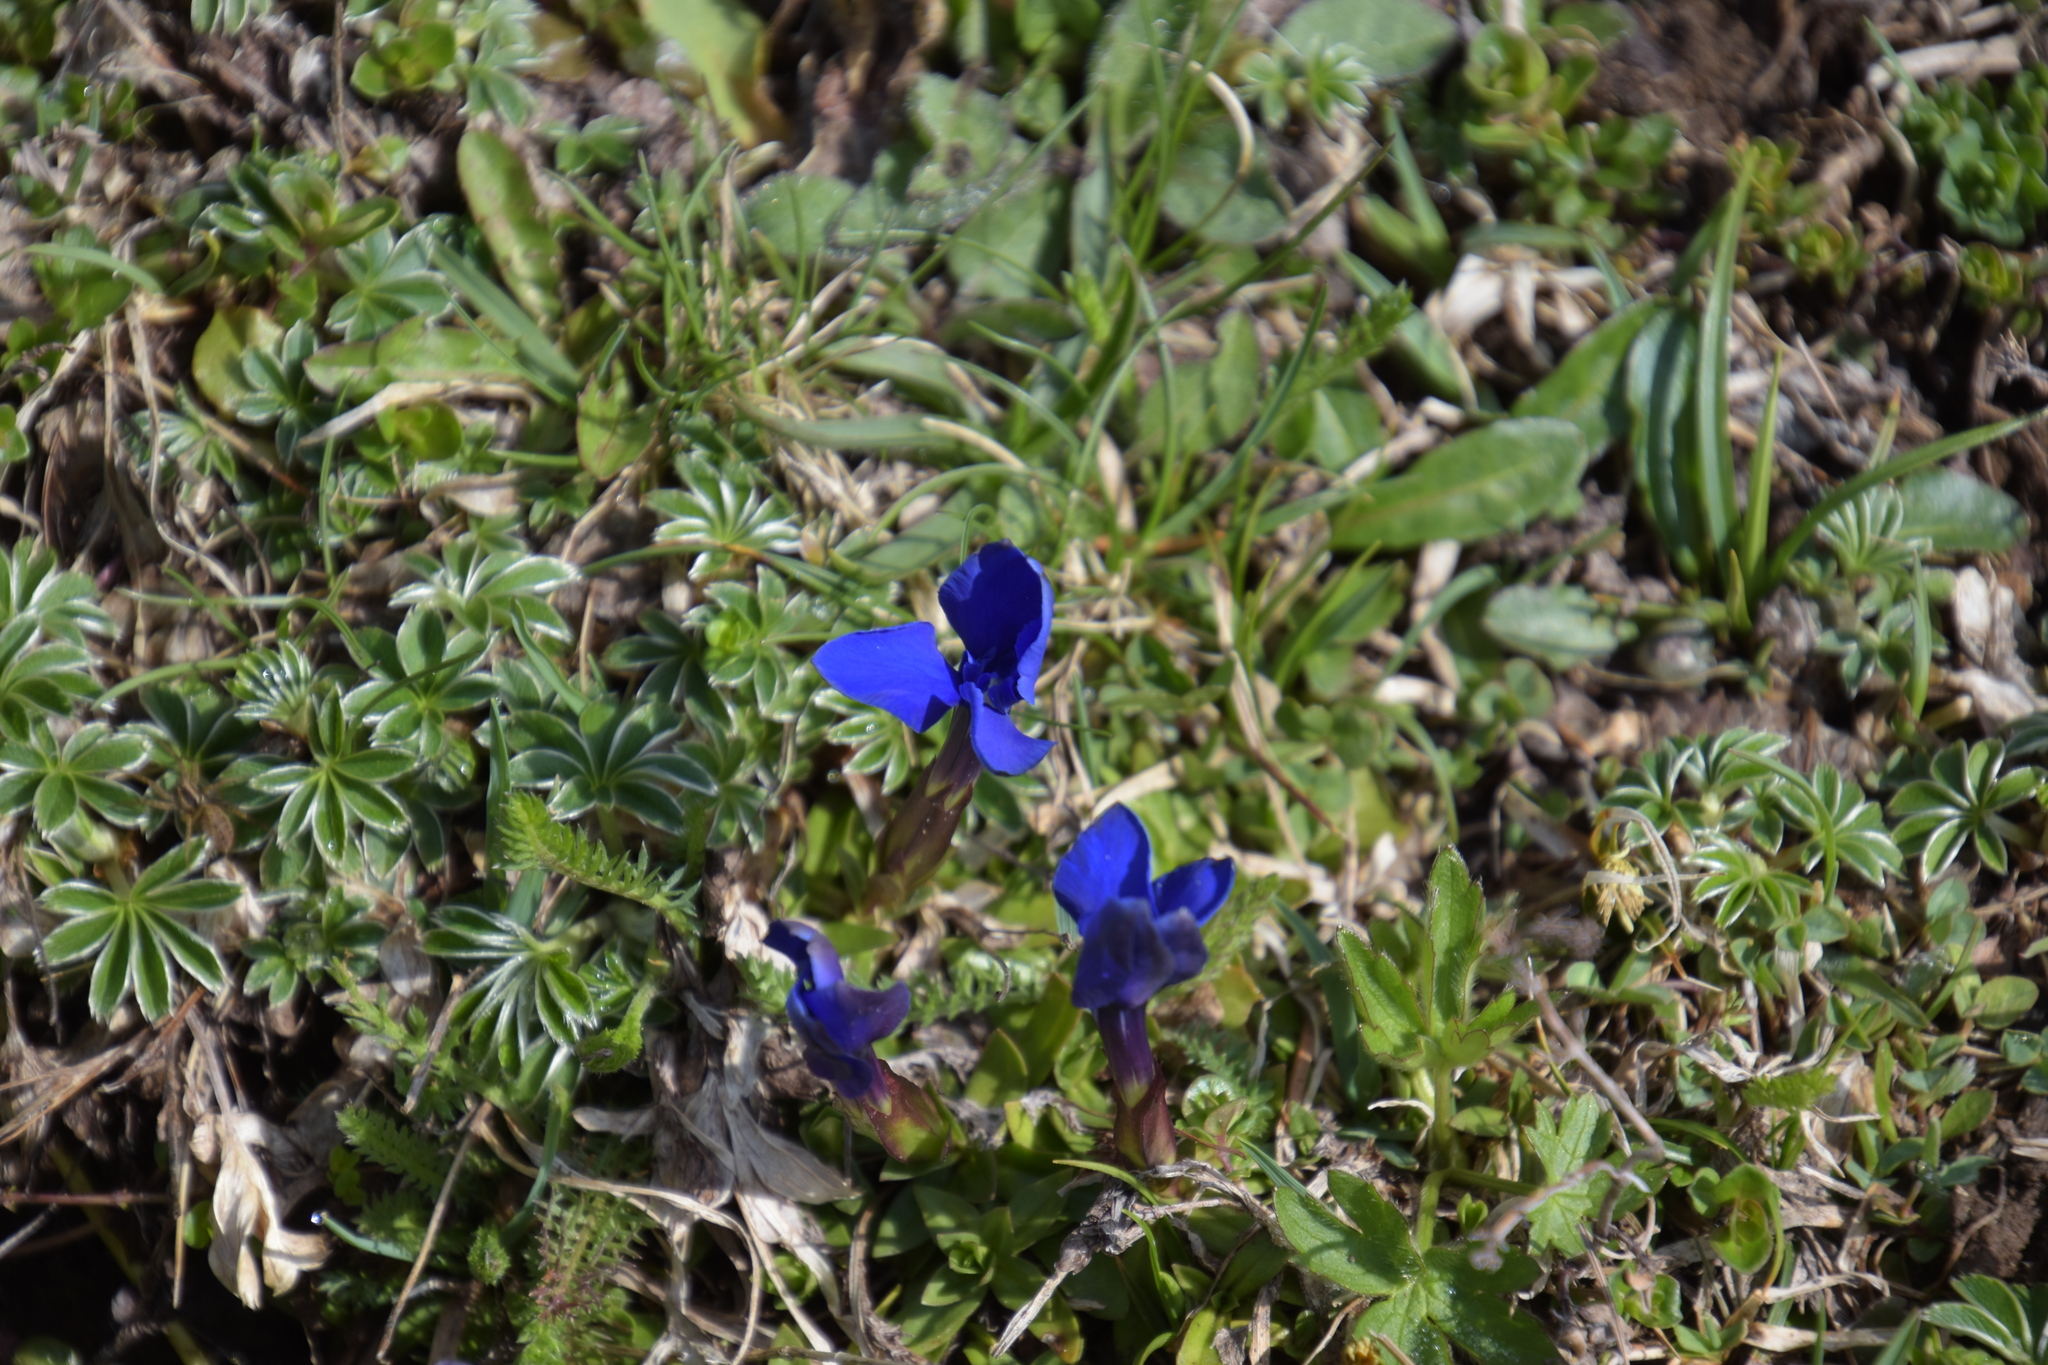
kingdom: Plantae
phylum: Tracheophyta
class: Magnoliopsida
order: Gentianales
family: Gentianaceae
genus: Gentiana
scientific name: Gentiana verna
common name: Spring gentian
